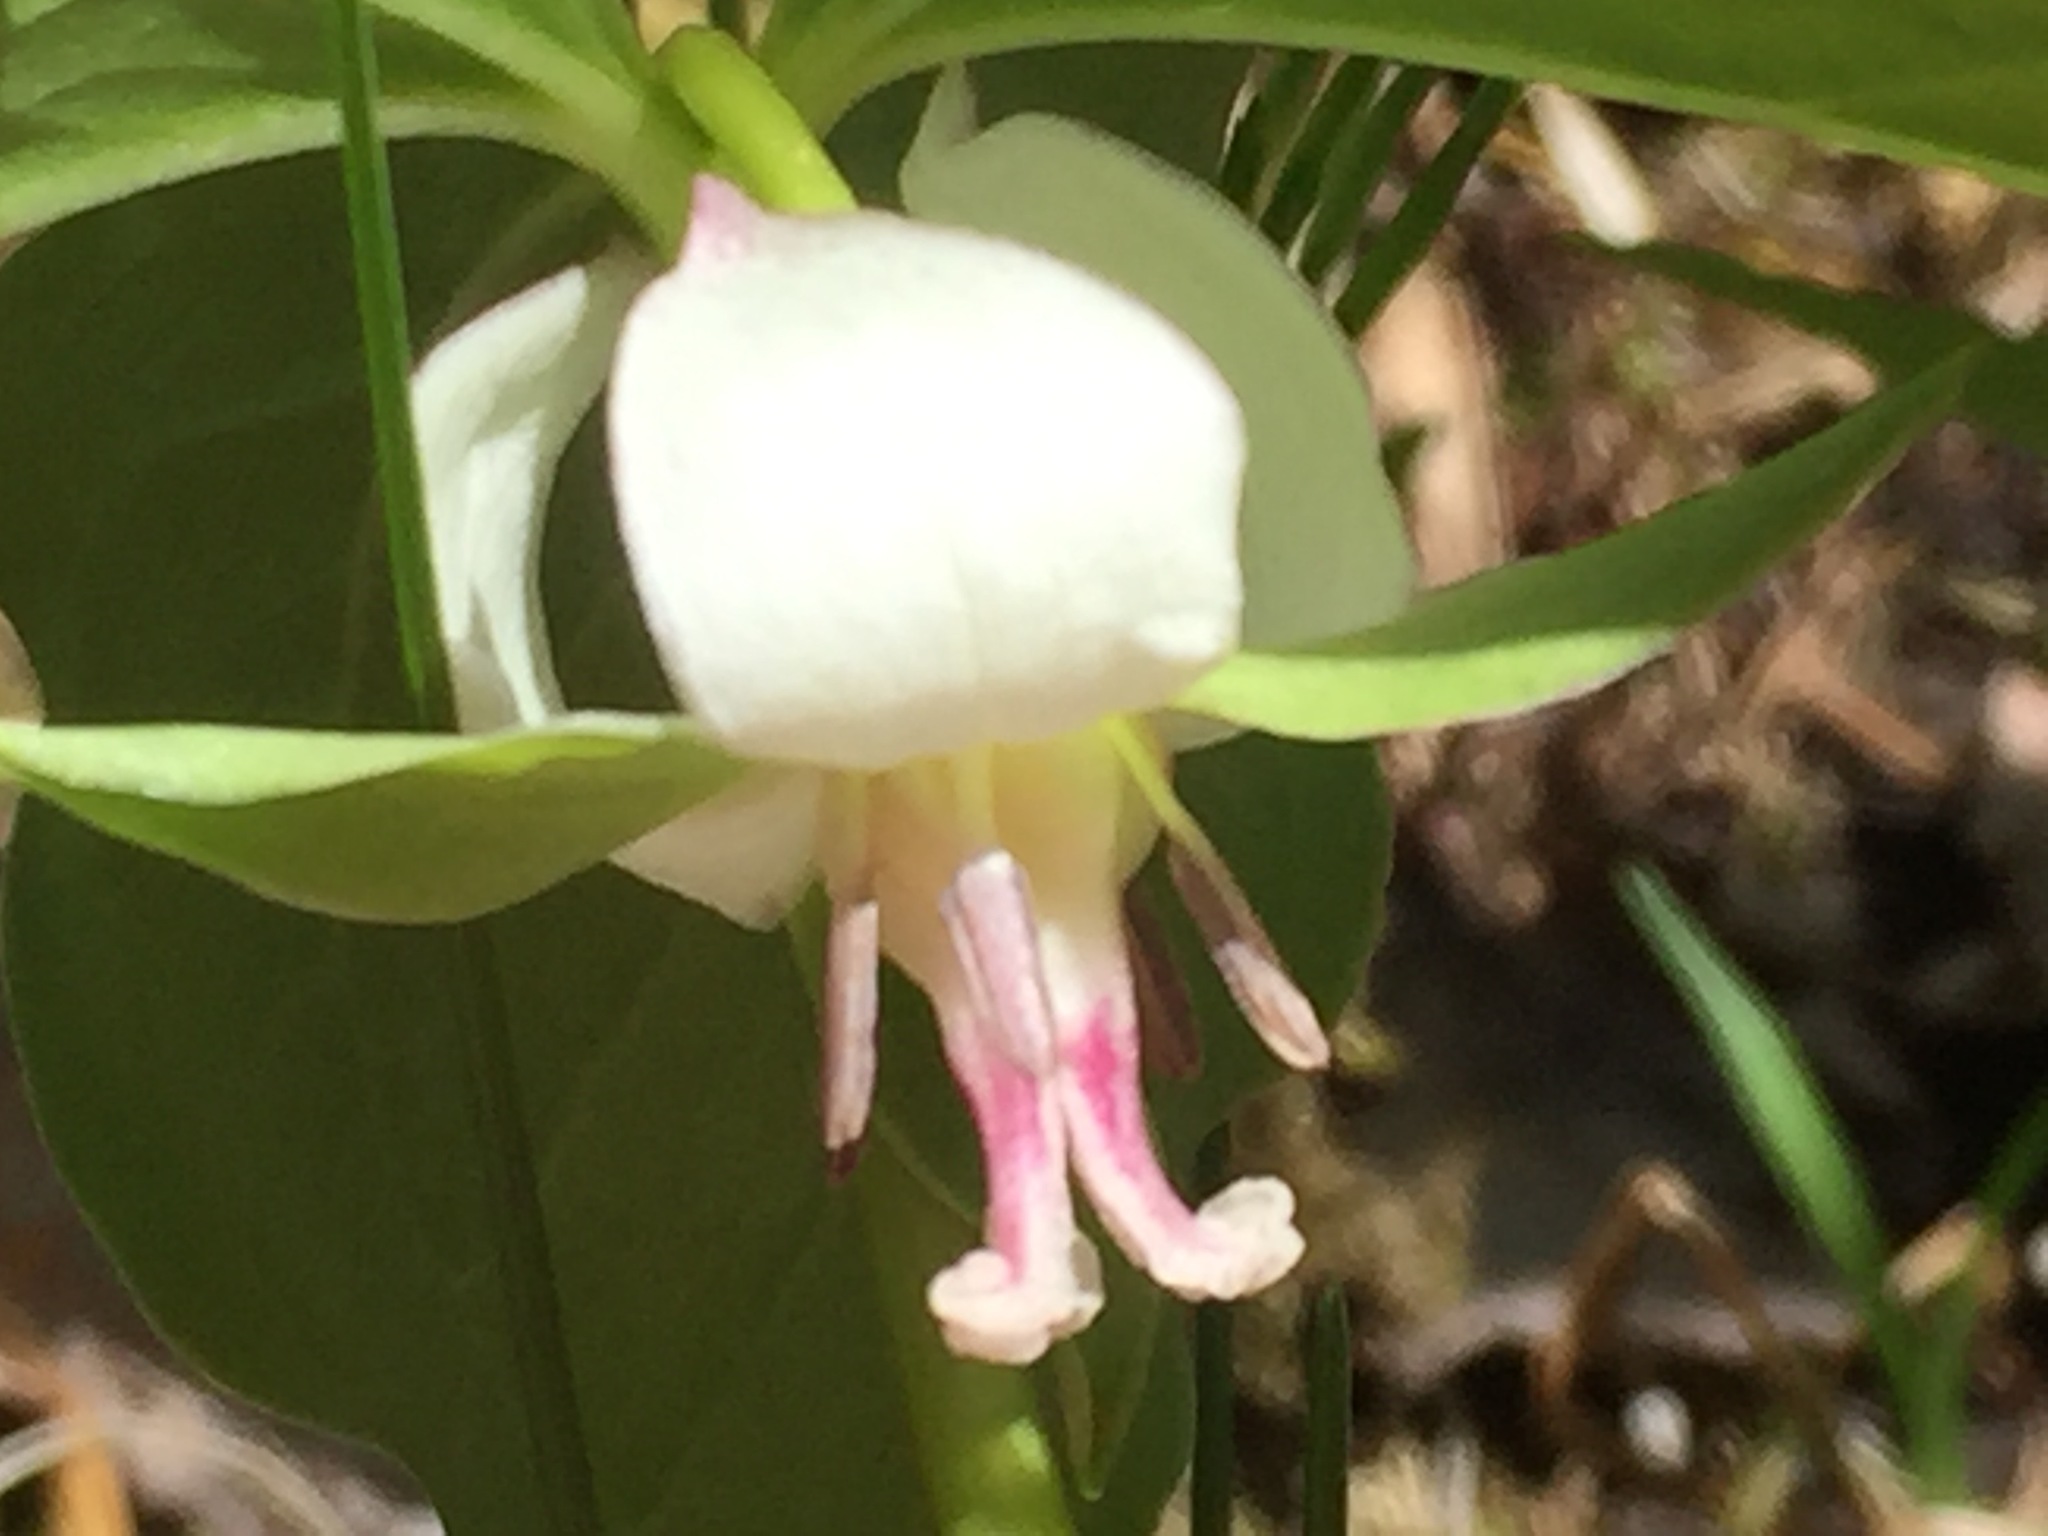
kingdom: Plantae
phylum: Tracheophyta
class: Liliopsida
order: Liliales
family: Melanthiaceae
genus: Trillium
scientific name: Trillium cernuum
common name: Nodding trillium
